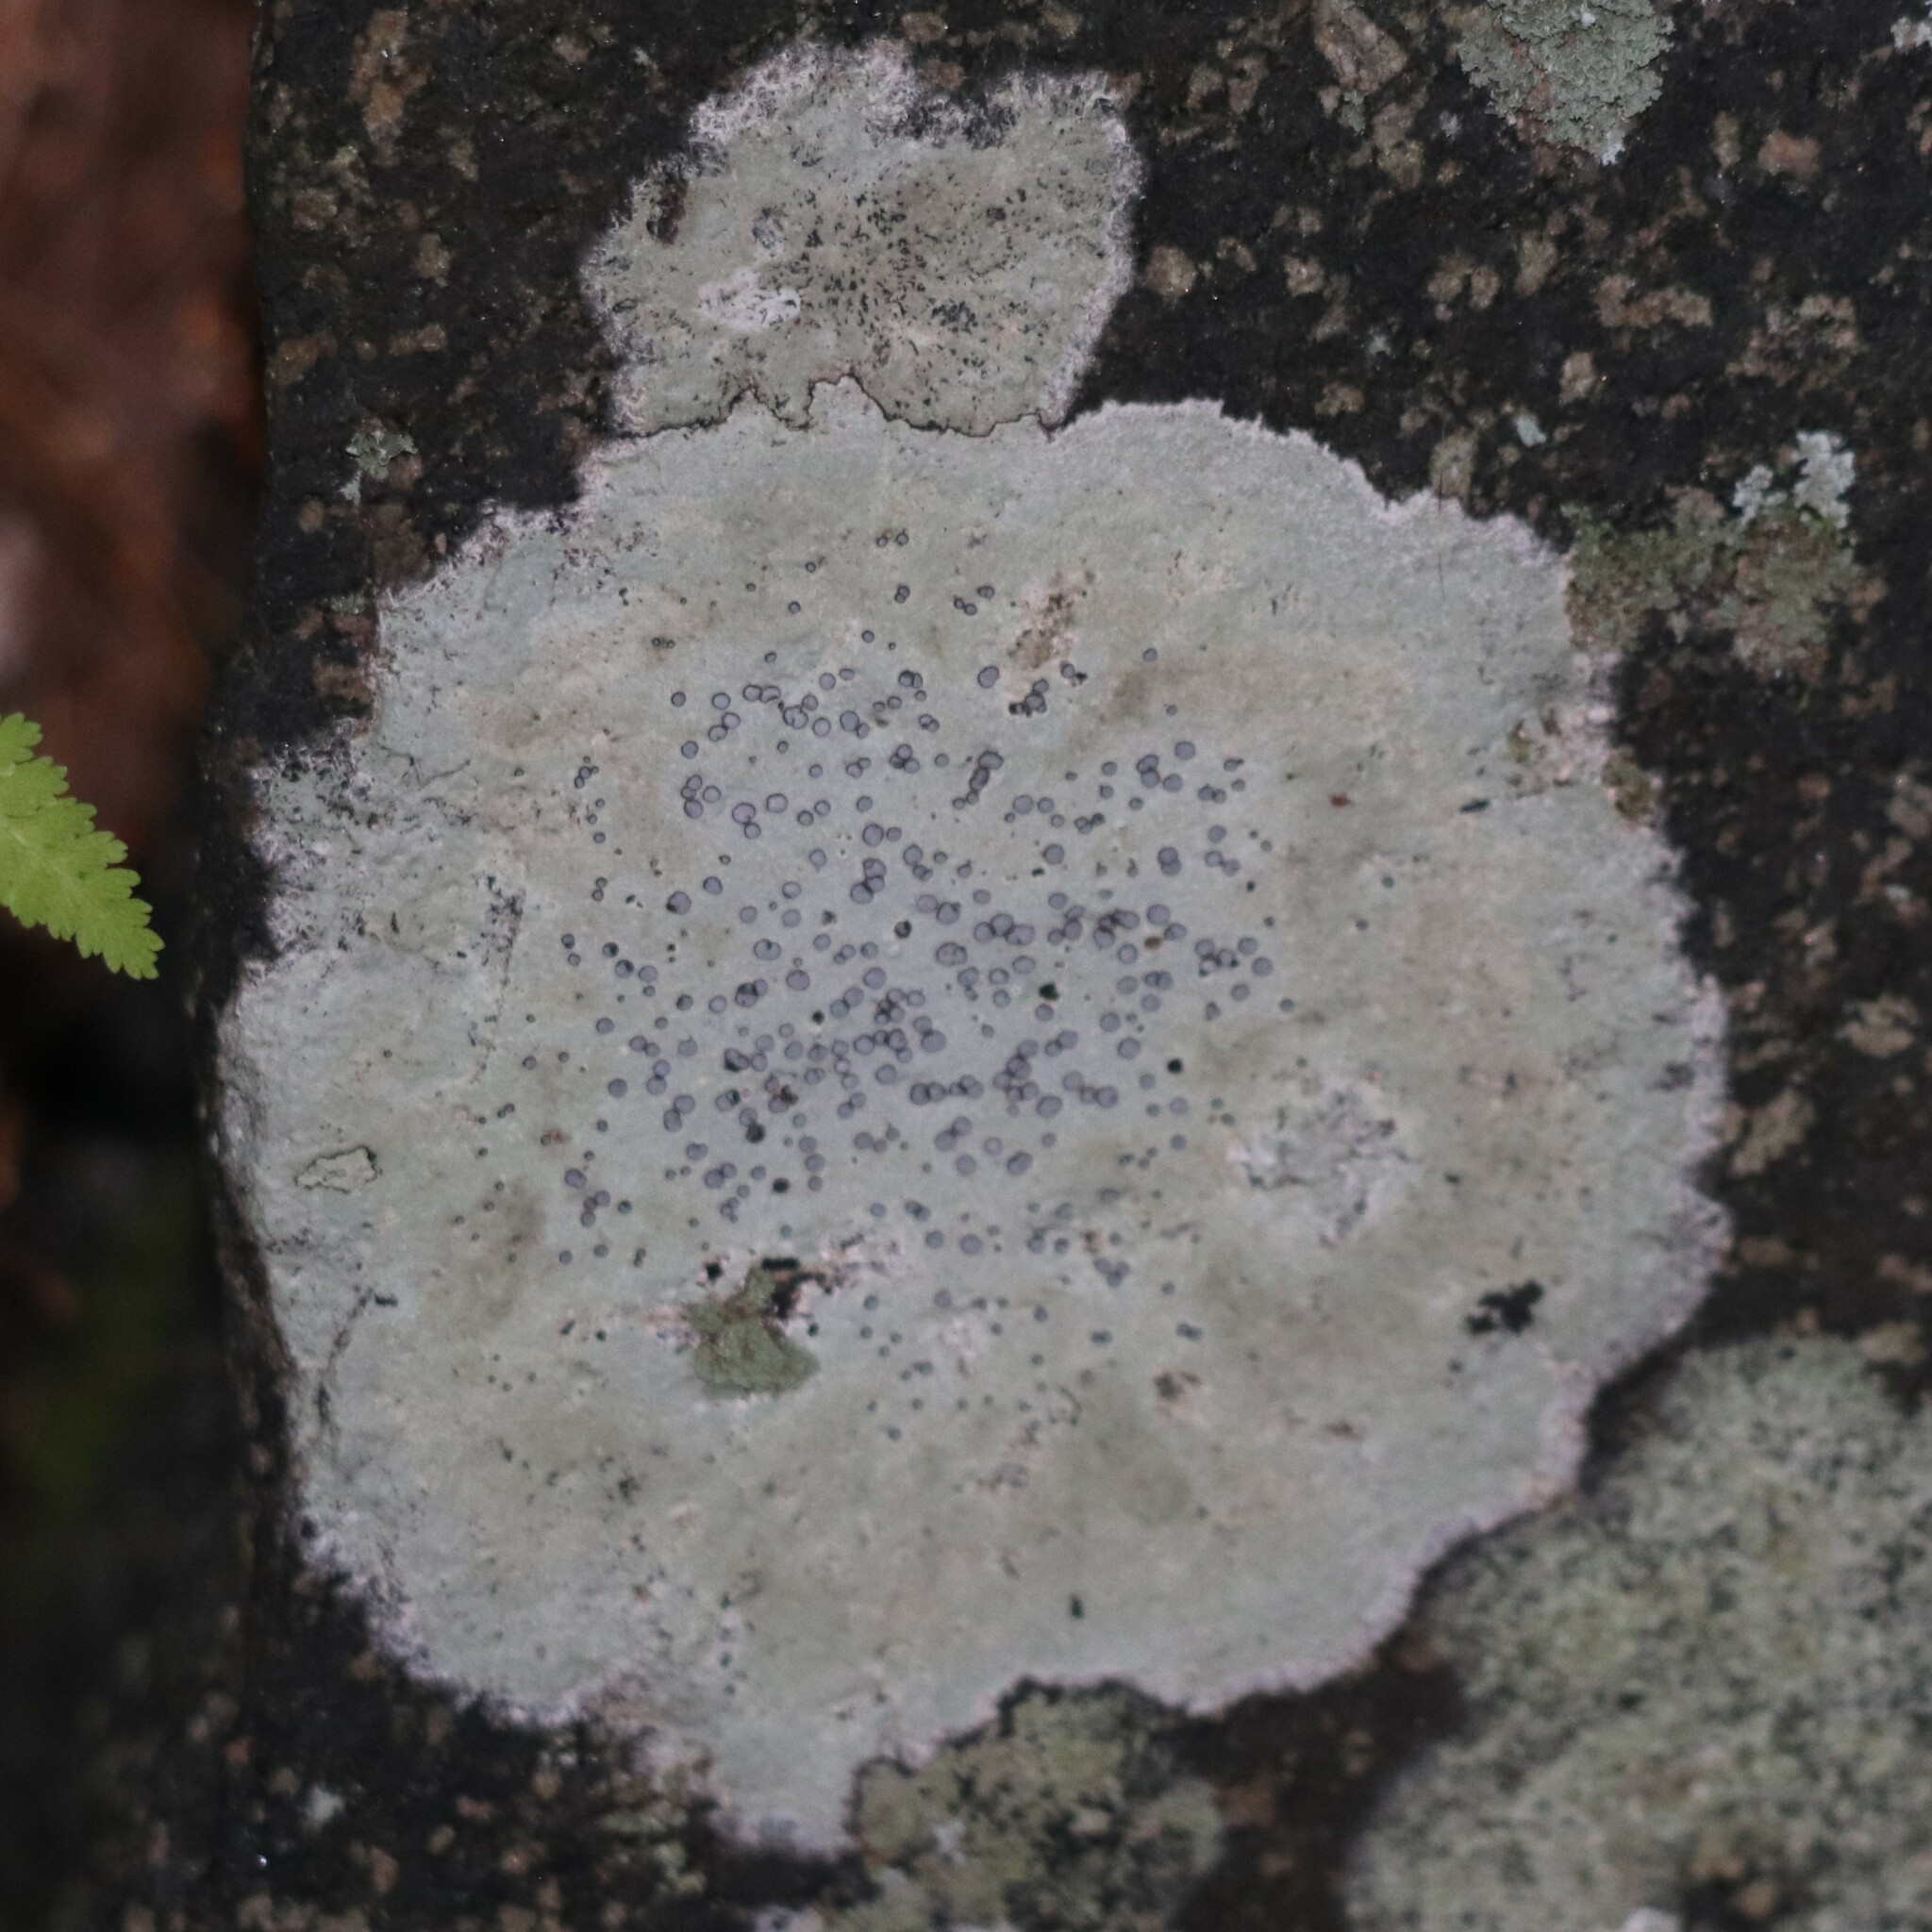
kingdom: Fungi
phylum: Ascomycota
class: Lecanoromycetes
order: Lecideales
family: Lecideaceae
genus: Porpidia
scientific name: Porpidia albocaerulescens
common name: Smokey-eyed boulder lichen
